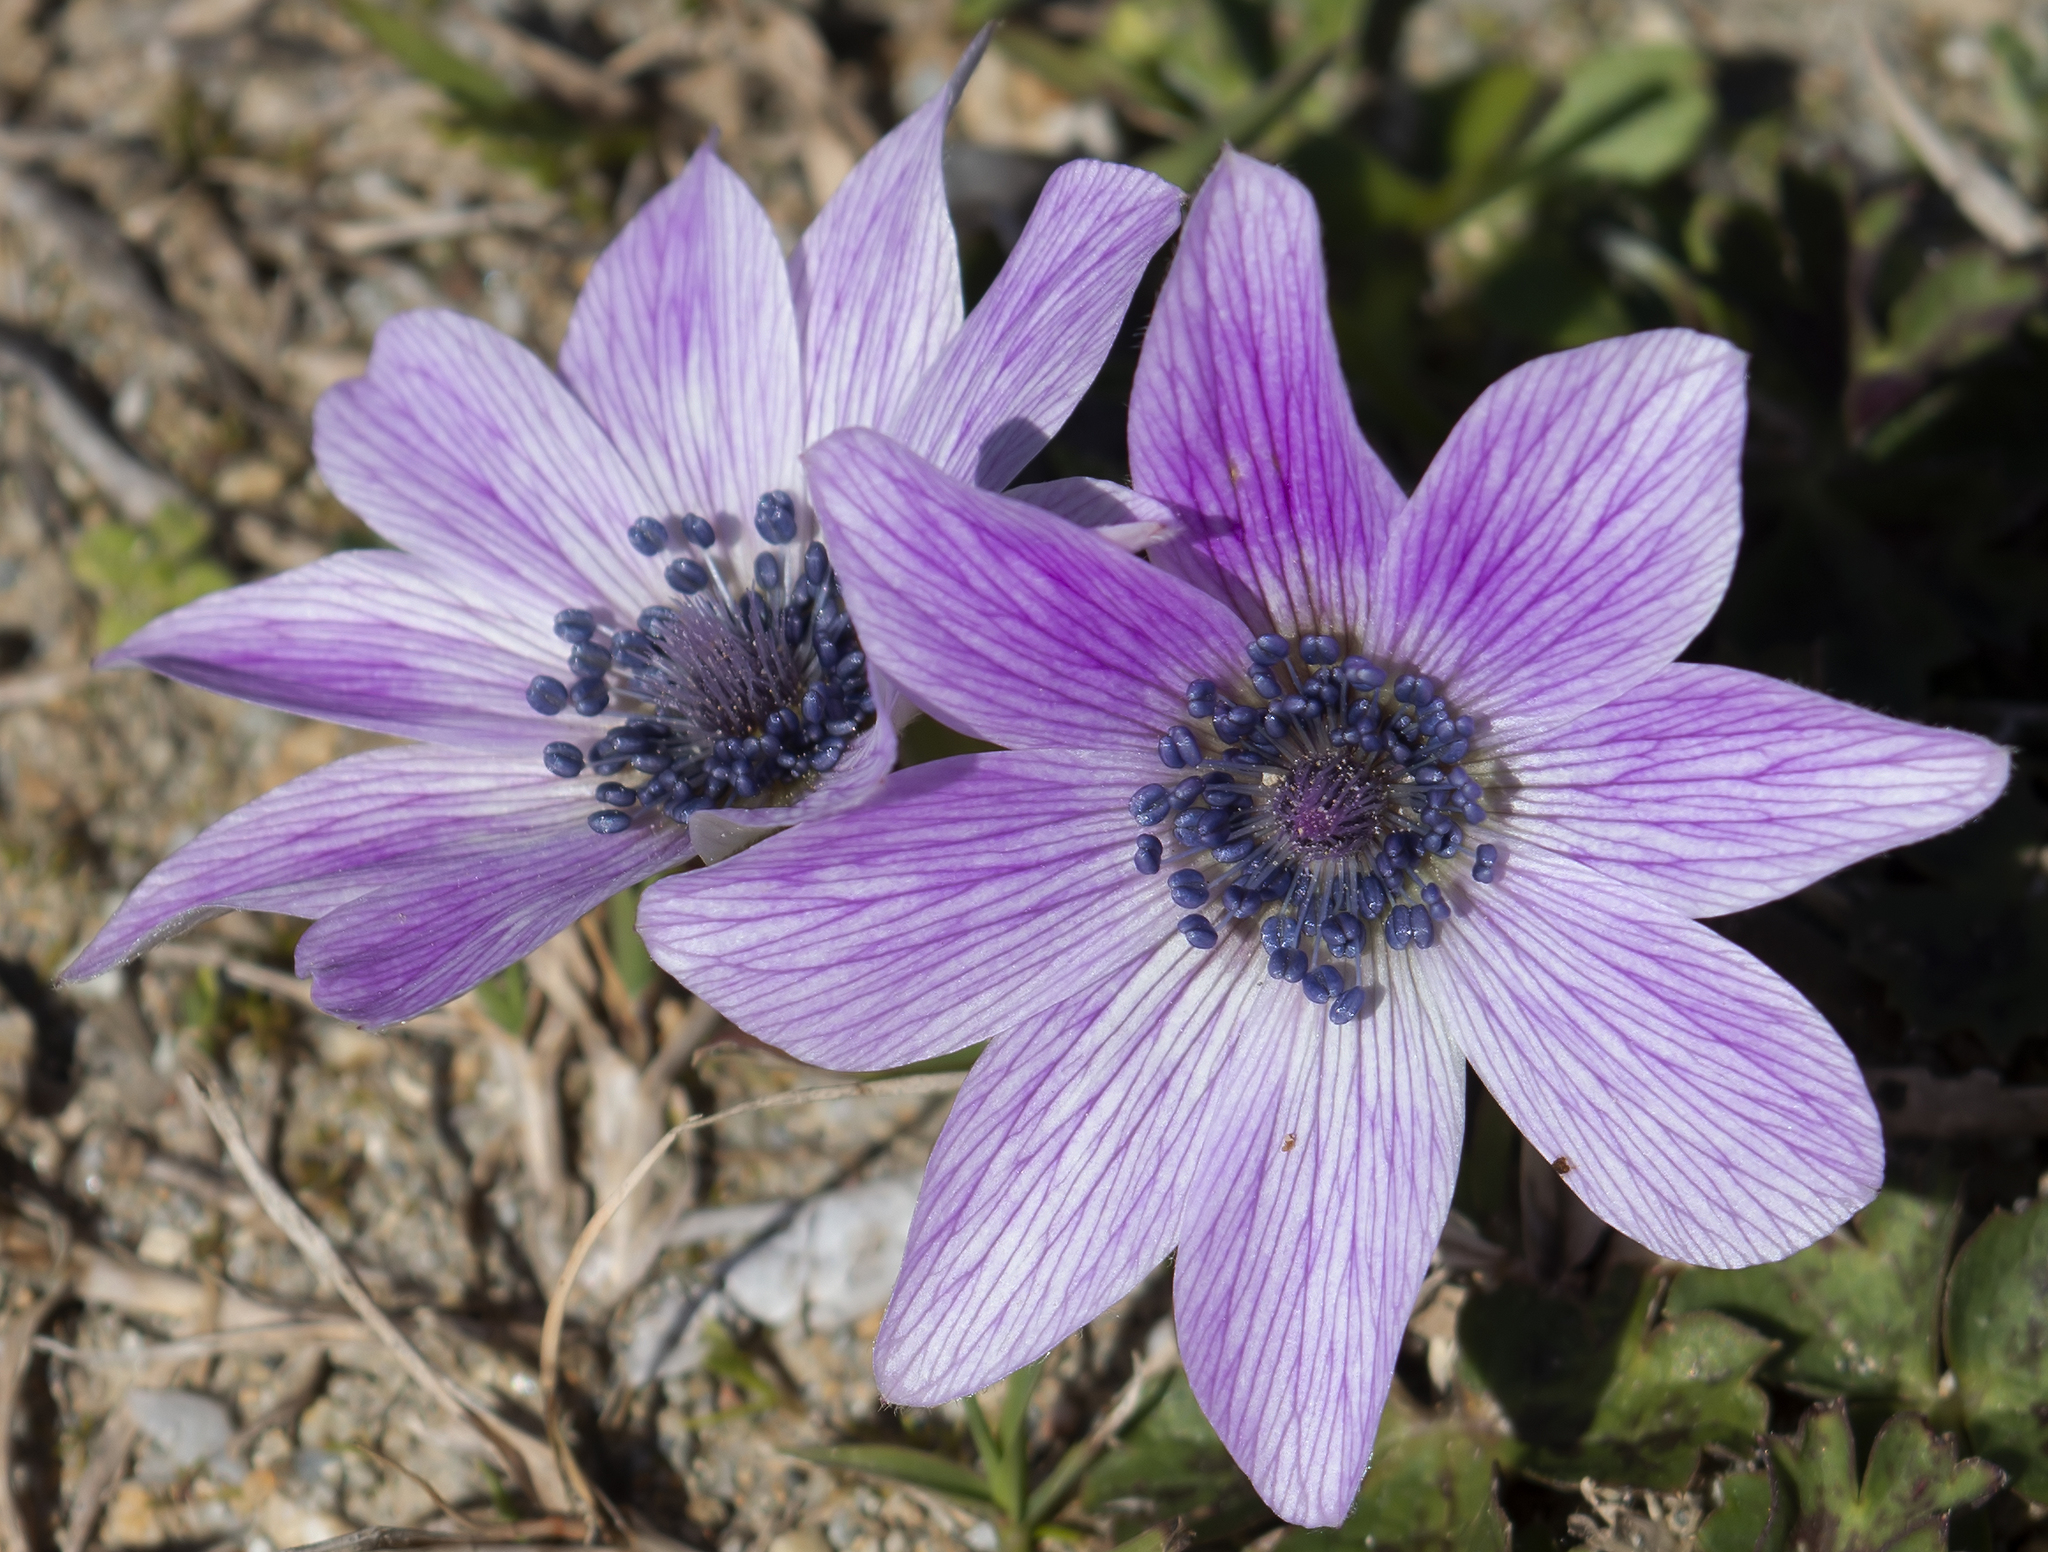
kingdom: Plantae
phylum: Tracheophyta
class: Magnoliopsida
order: Ranunculales
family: Ranunculaceae
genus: Anemone
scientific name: Anemone pavonina
